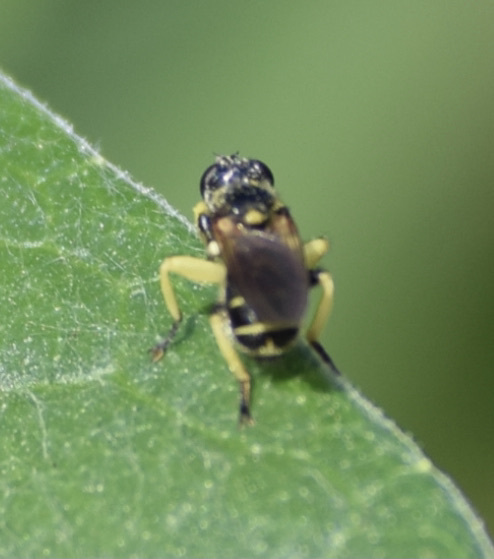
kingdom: Animalia
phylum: Arthropoda
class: Insecta
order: Diptera
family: Conopidae
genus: Dalmannia
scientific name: Dalmannia nigriceps
